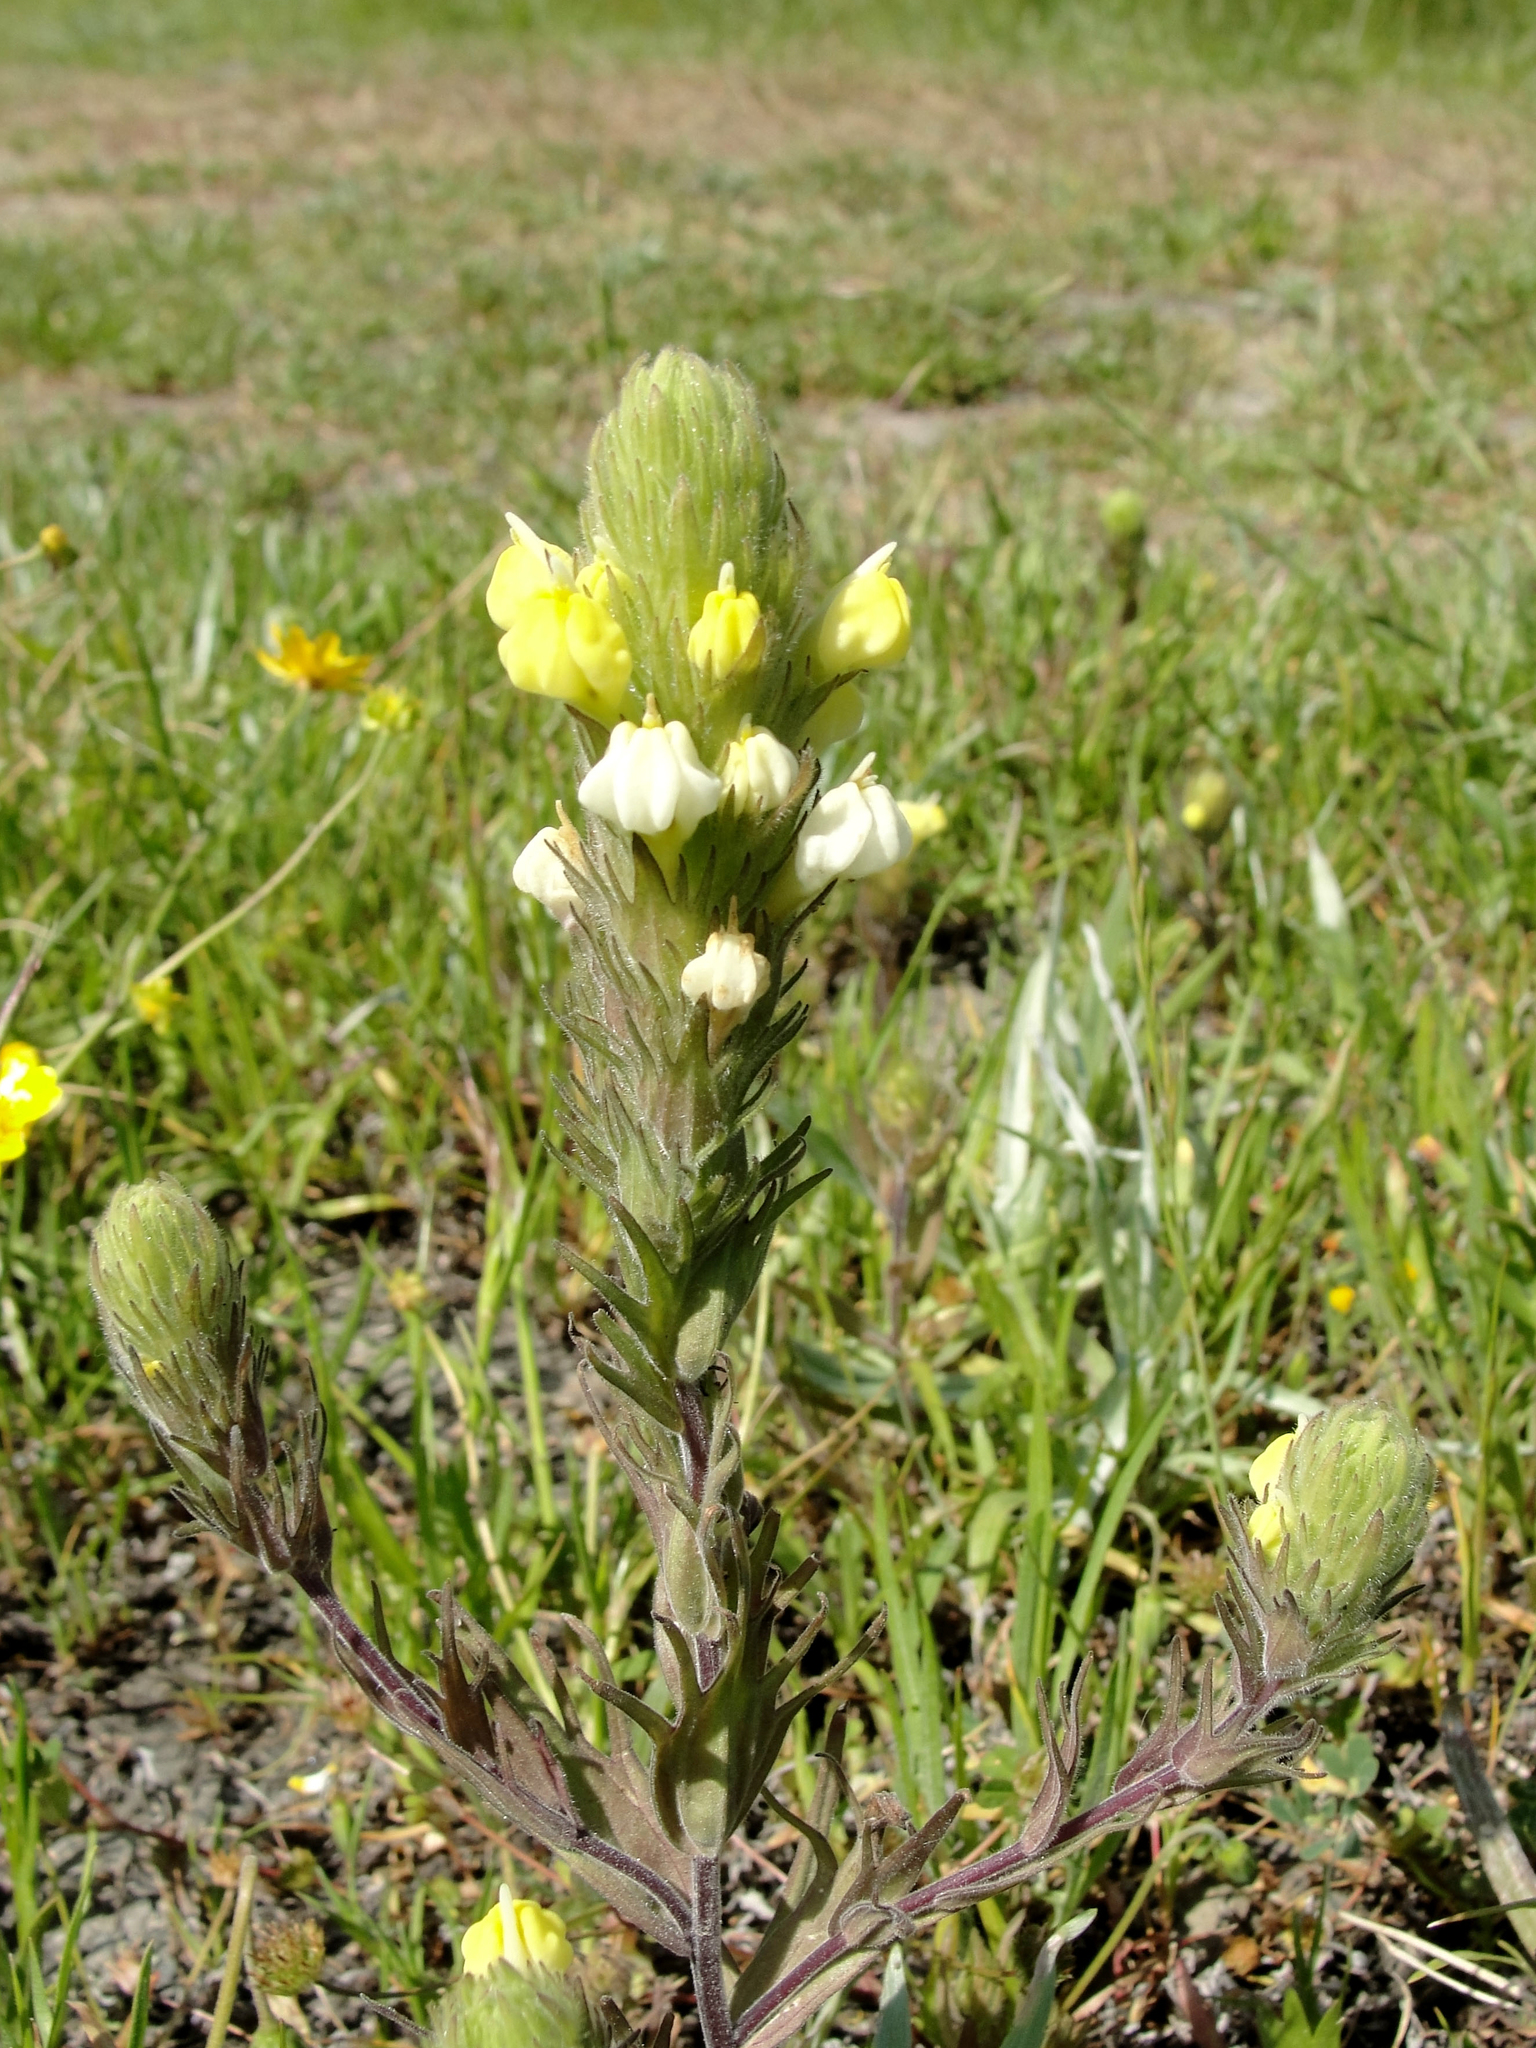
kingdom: Plantae
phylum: Tracheophyta
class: Magnoliopsida
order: Lamiales
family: Orobanchaceae
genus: Castilleja
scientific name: Castilleja rubicundula
